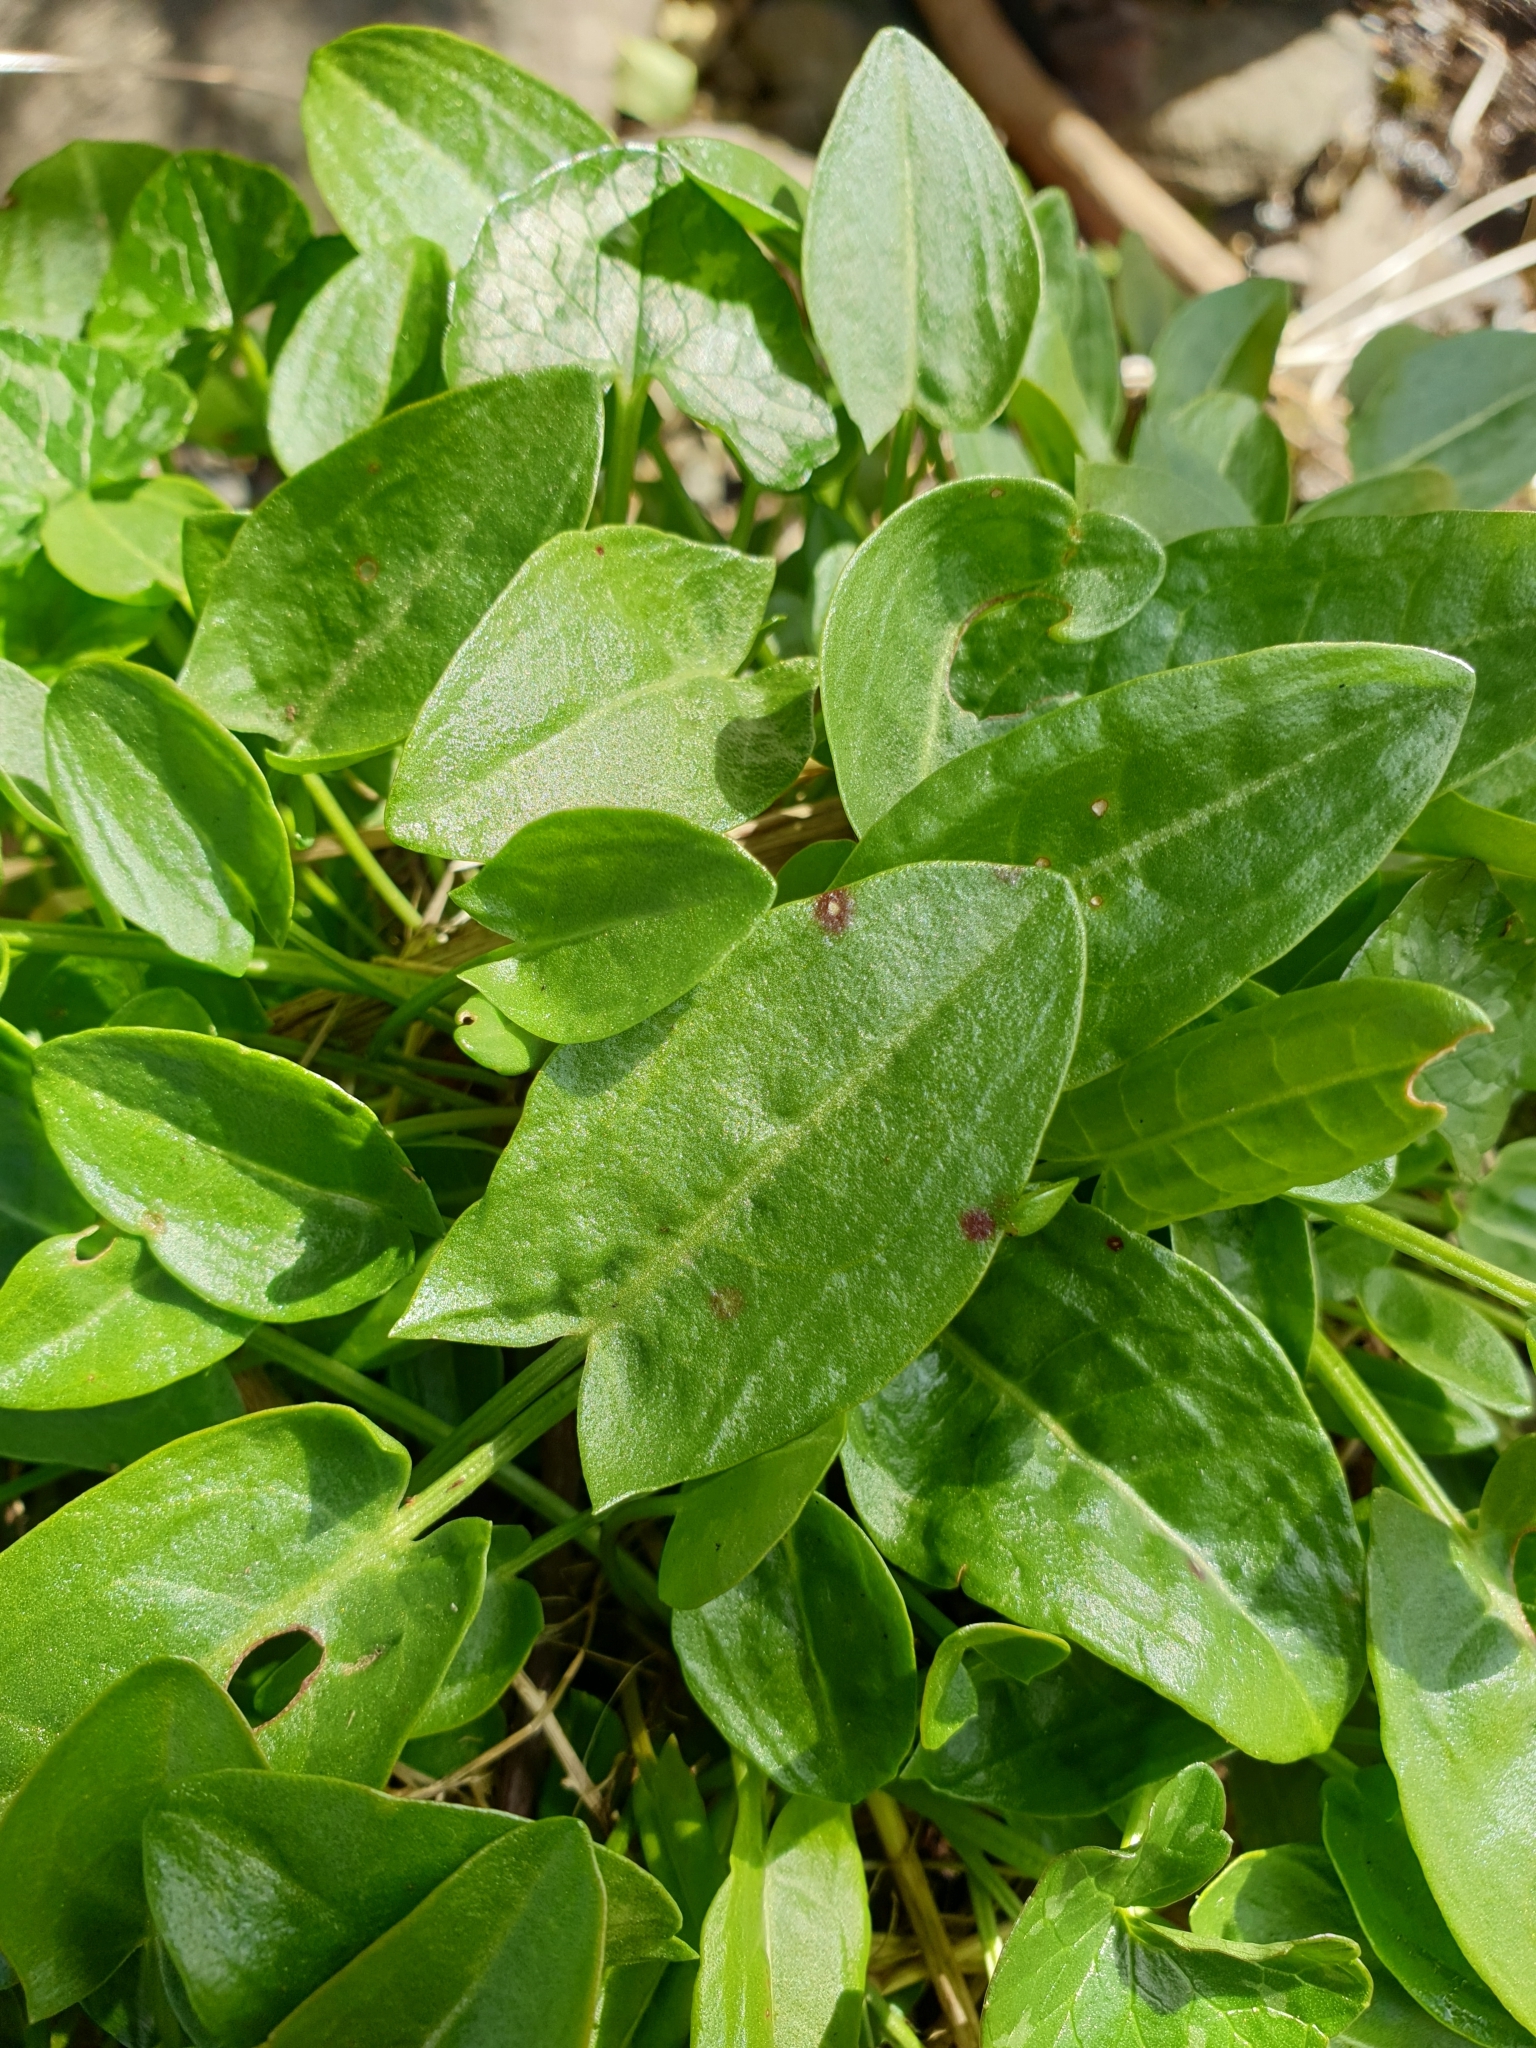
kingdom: Plantae
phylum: Tracheophyta
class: Magnoliopsida
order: Caryophyllales
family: Polygonaceae
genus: Rumex
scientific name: Rumex acetosa
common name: Garden sorrel
